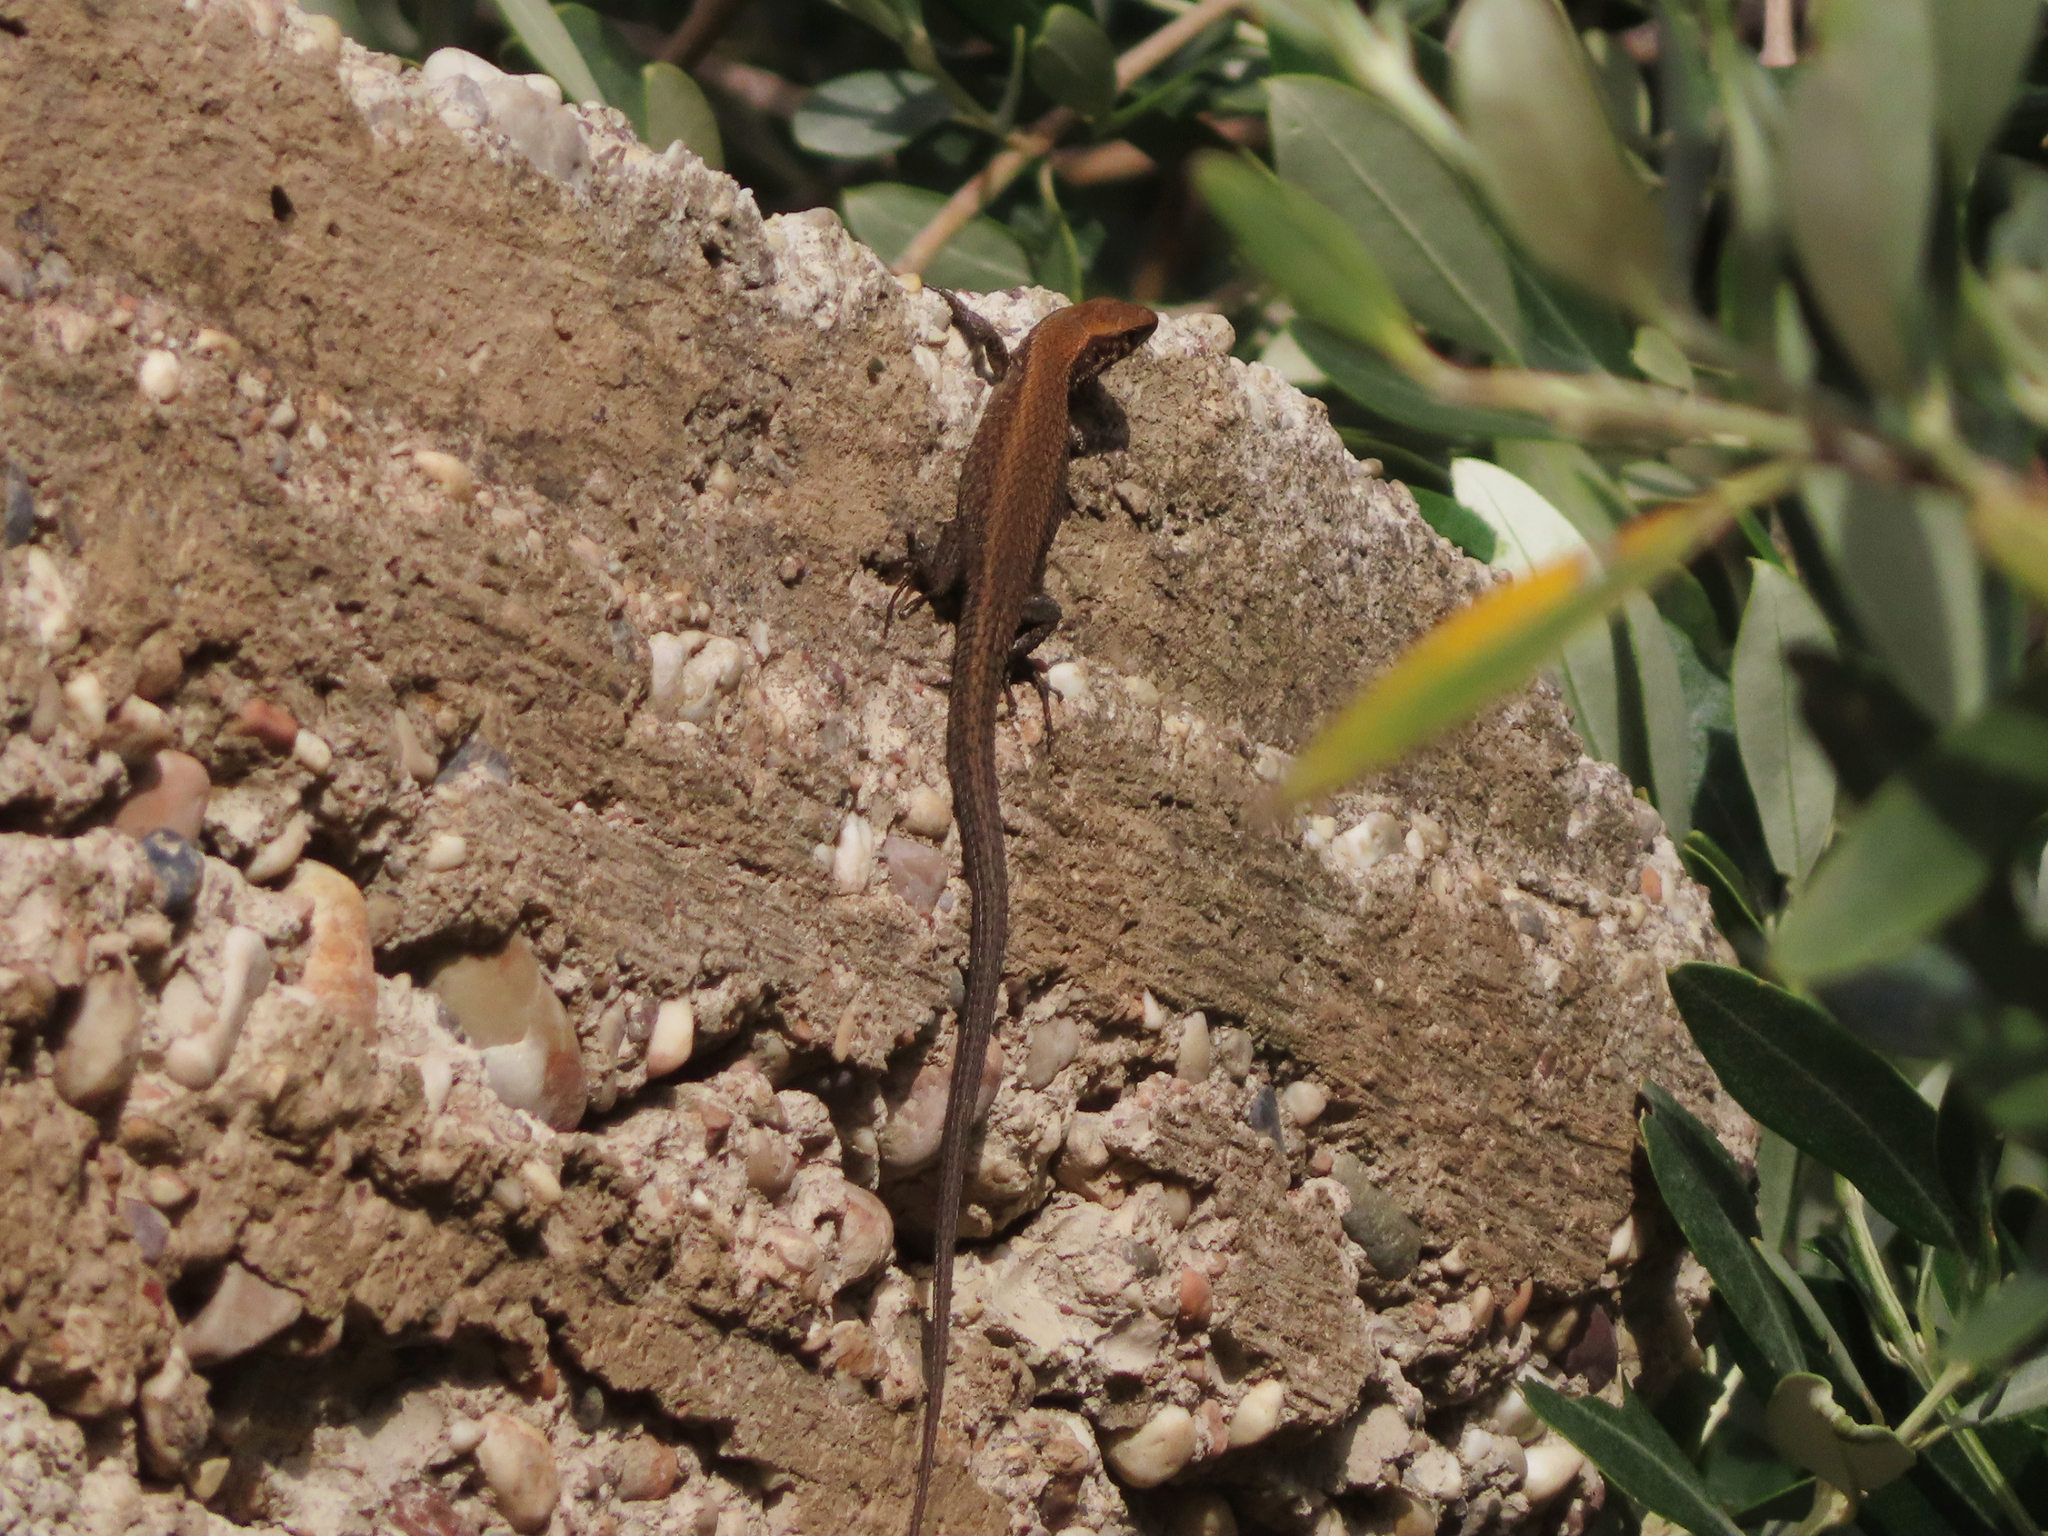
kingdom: Animalia
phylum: Chordata
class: Squamata
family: Lacertidae
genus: Algyroides
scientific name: Algyroides moreoticus
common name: Greek algyroides
